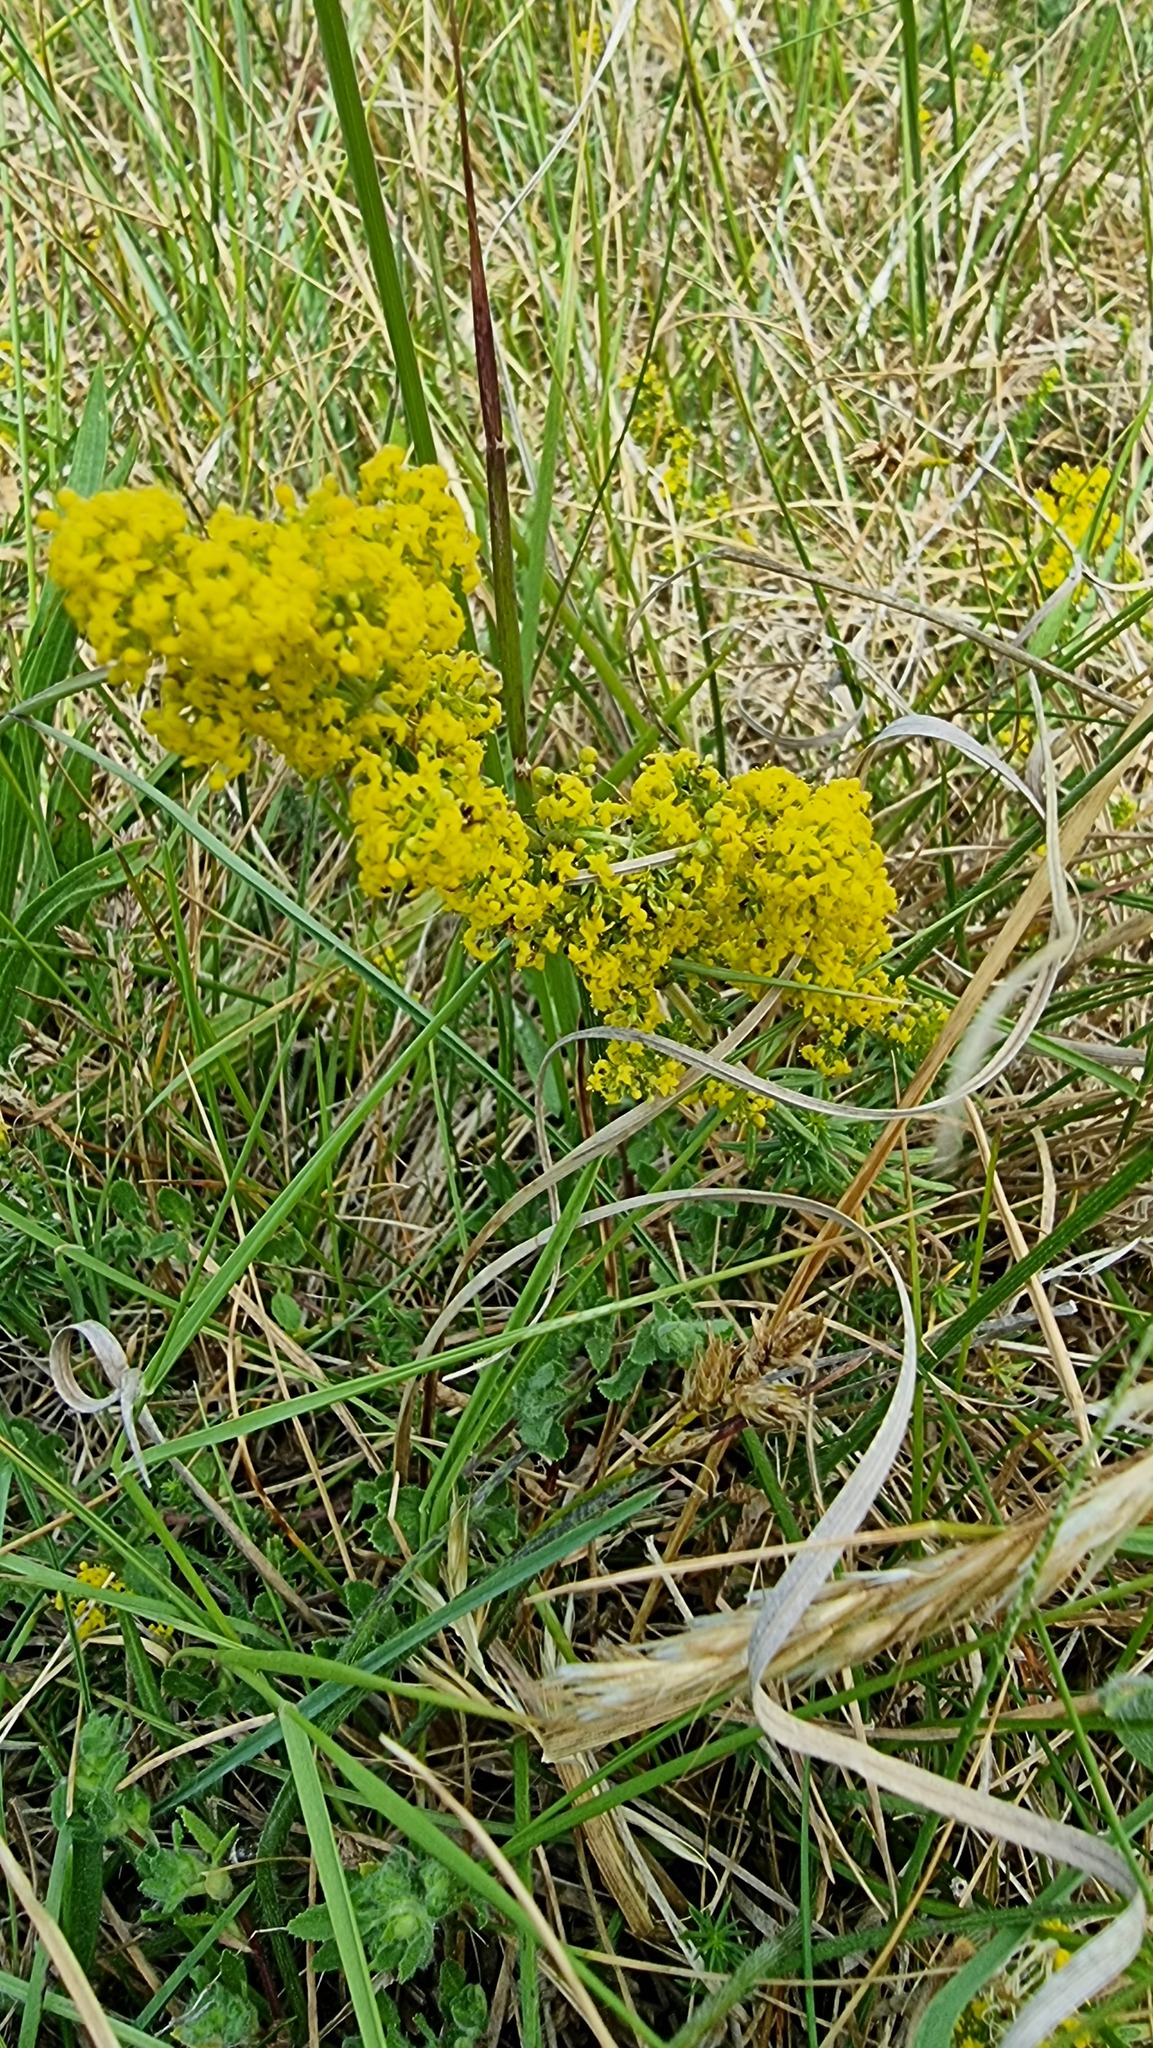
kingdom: Plantae
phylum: Tracheophyta
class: Magnoliopsida
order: Gentianales
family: Rubiaceae
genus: Galium
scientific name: Galium verum
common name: Lady's bedstraw
